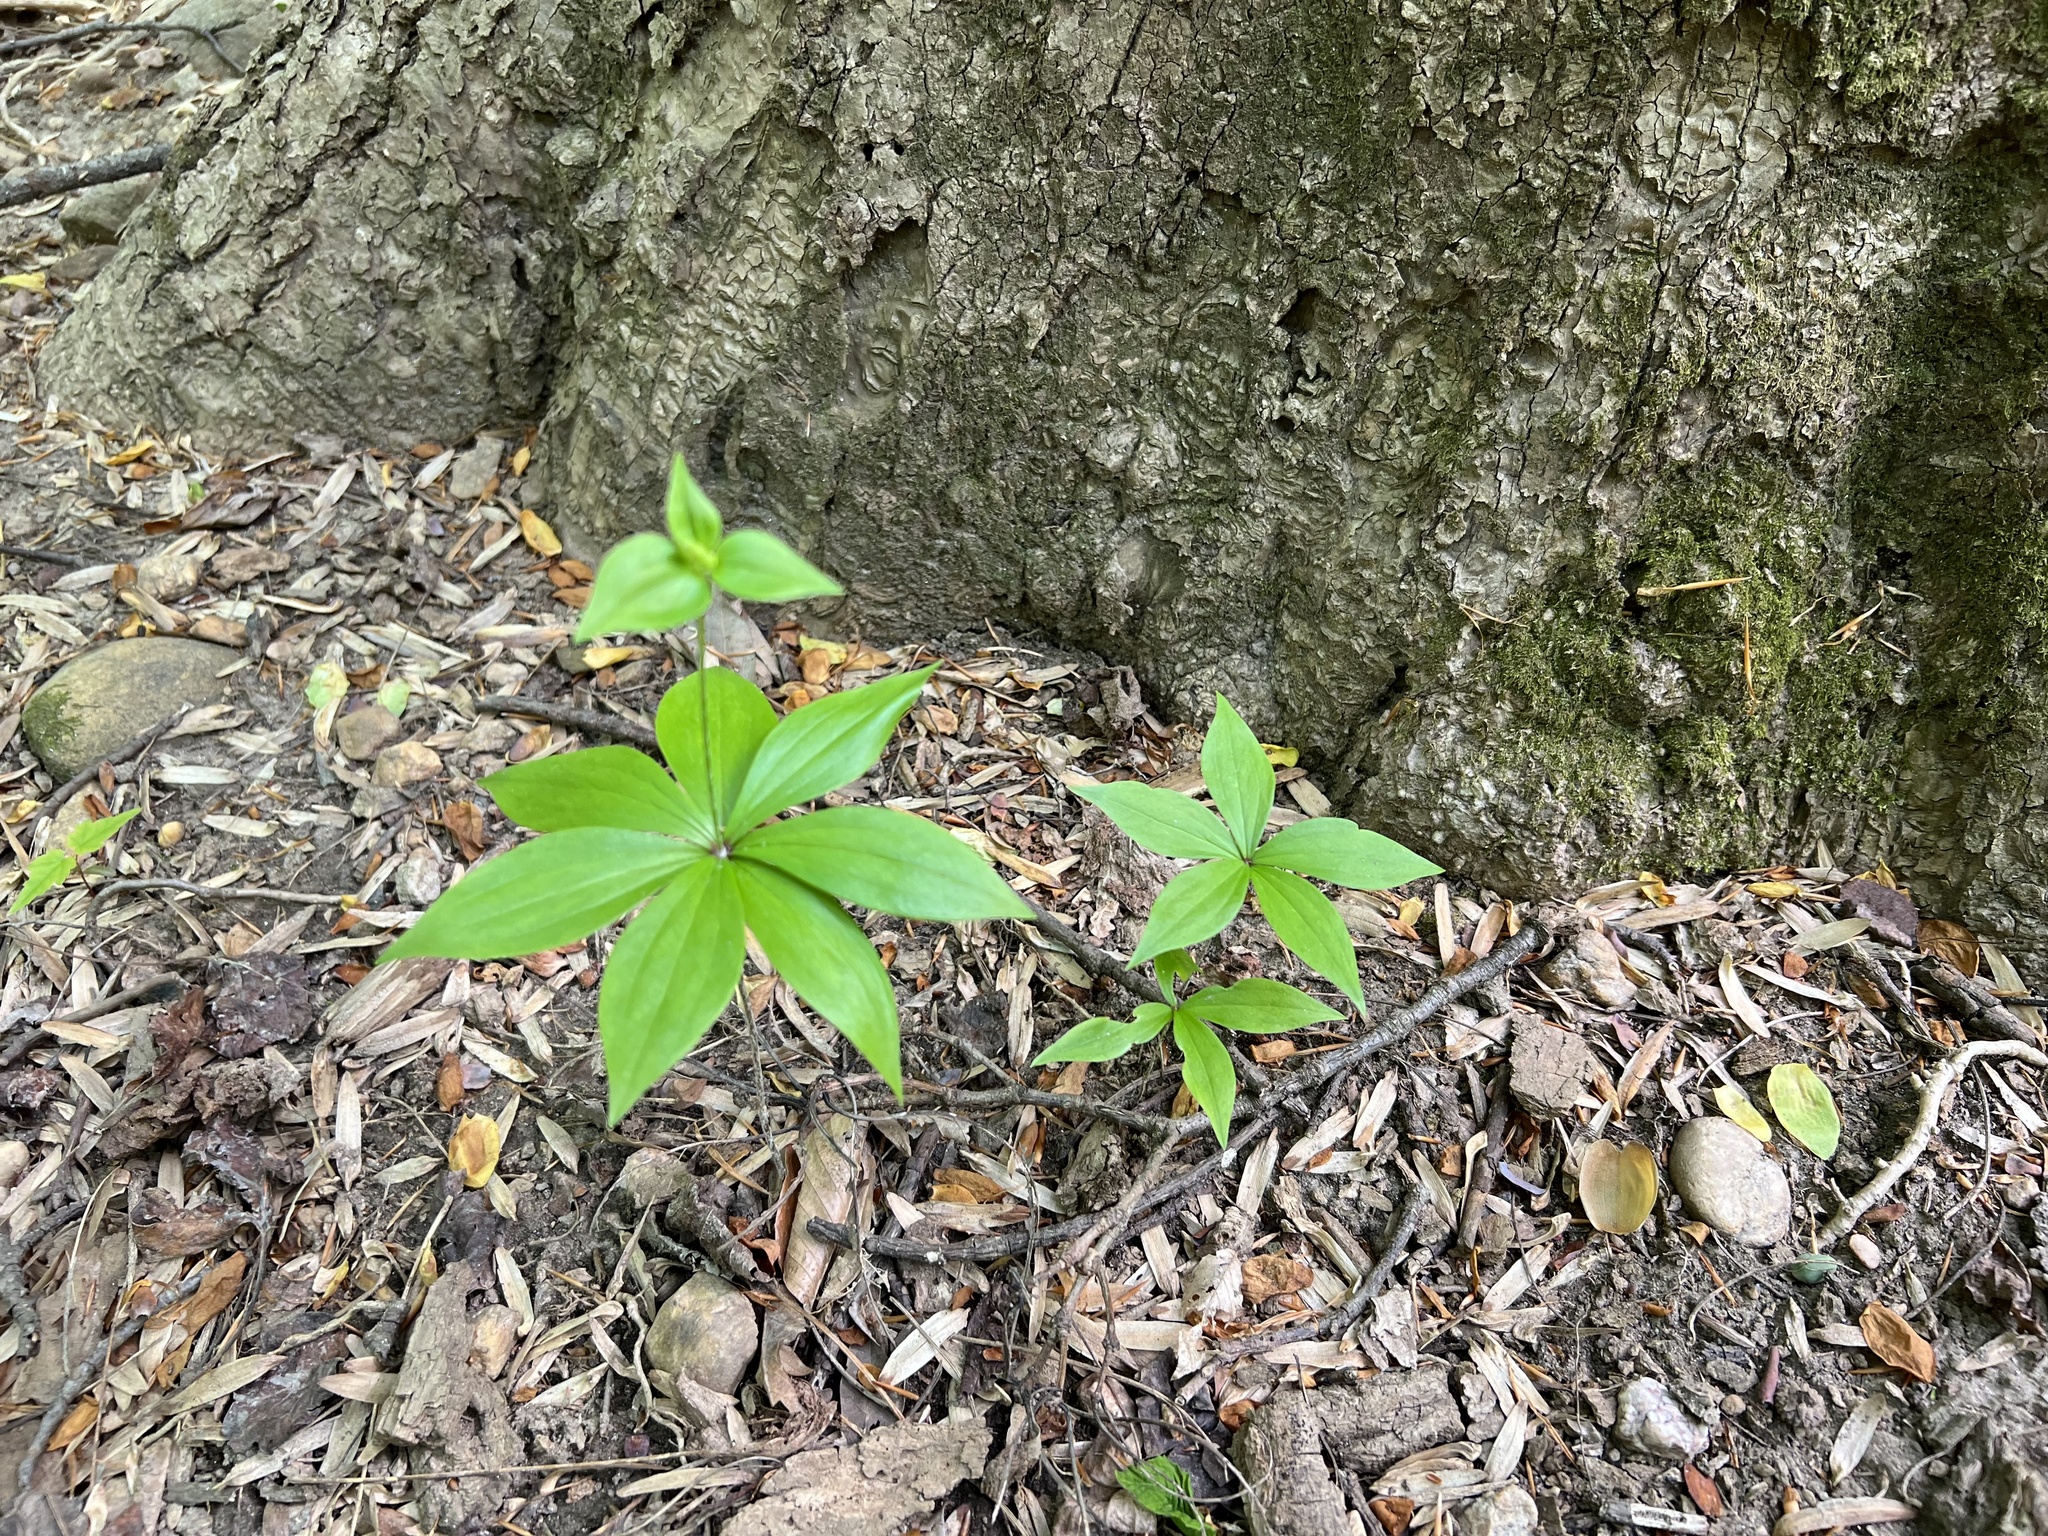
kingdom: Plantae
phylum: Tracheophyta
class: Liliopsida
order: Liliales
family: Liliaceae
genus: Medeola
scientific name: Medeola virginiana
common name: Indian cucumber-root
